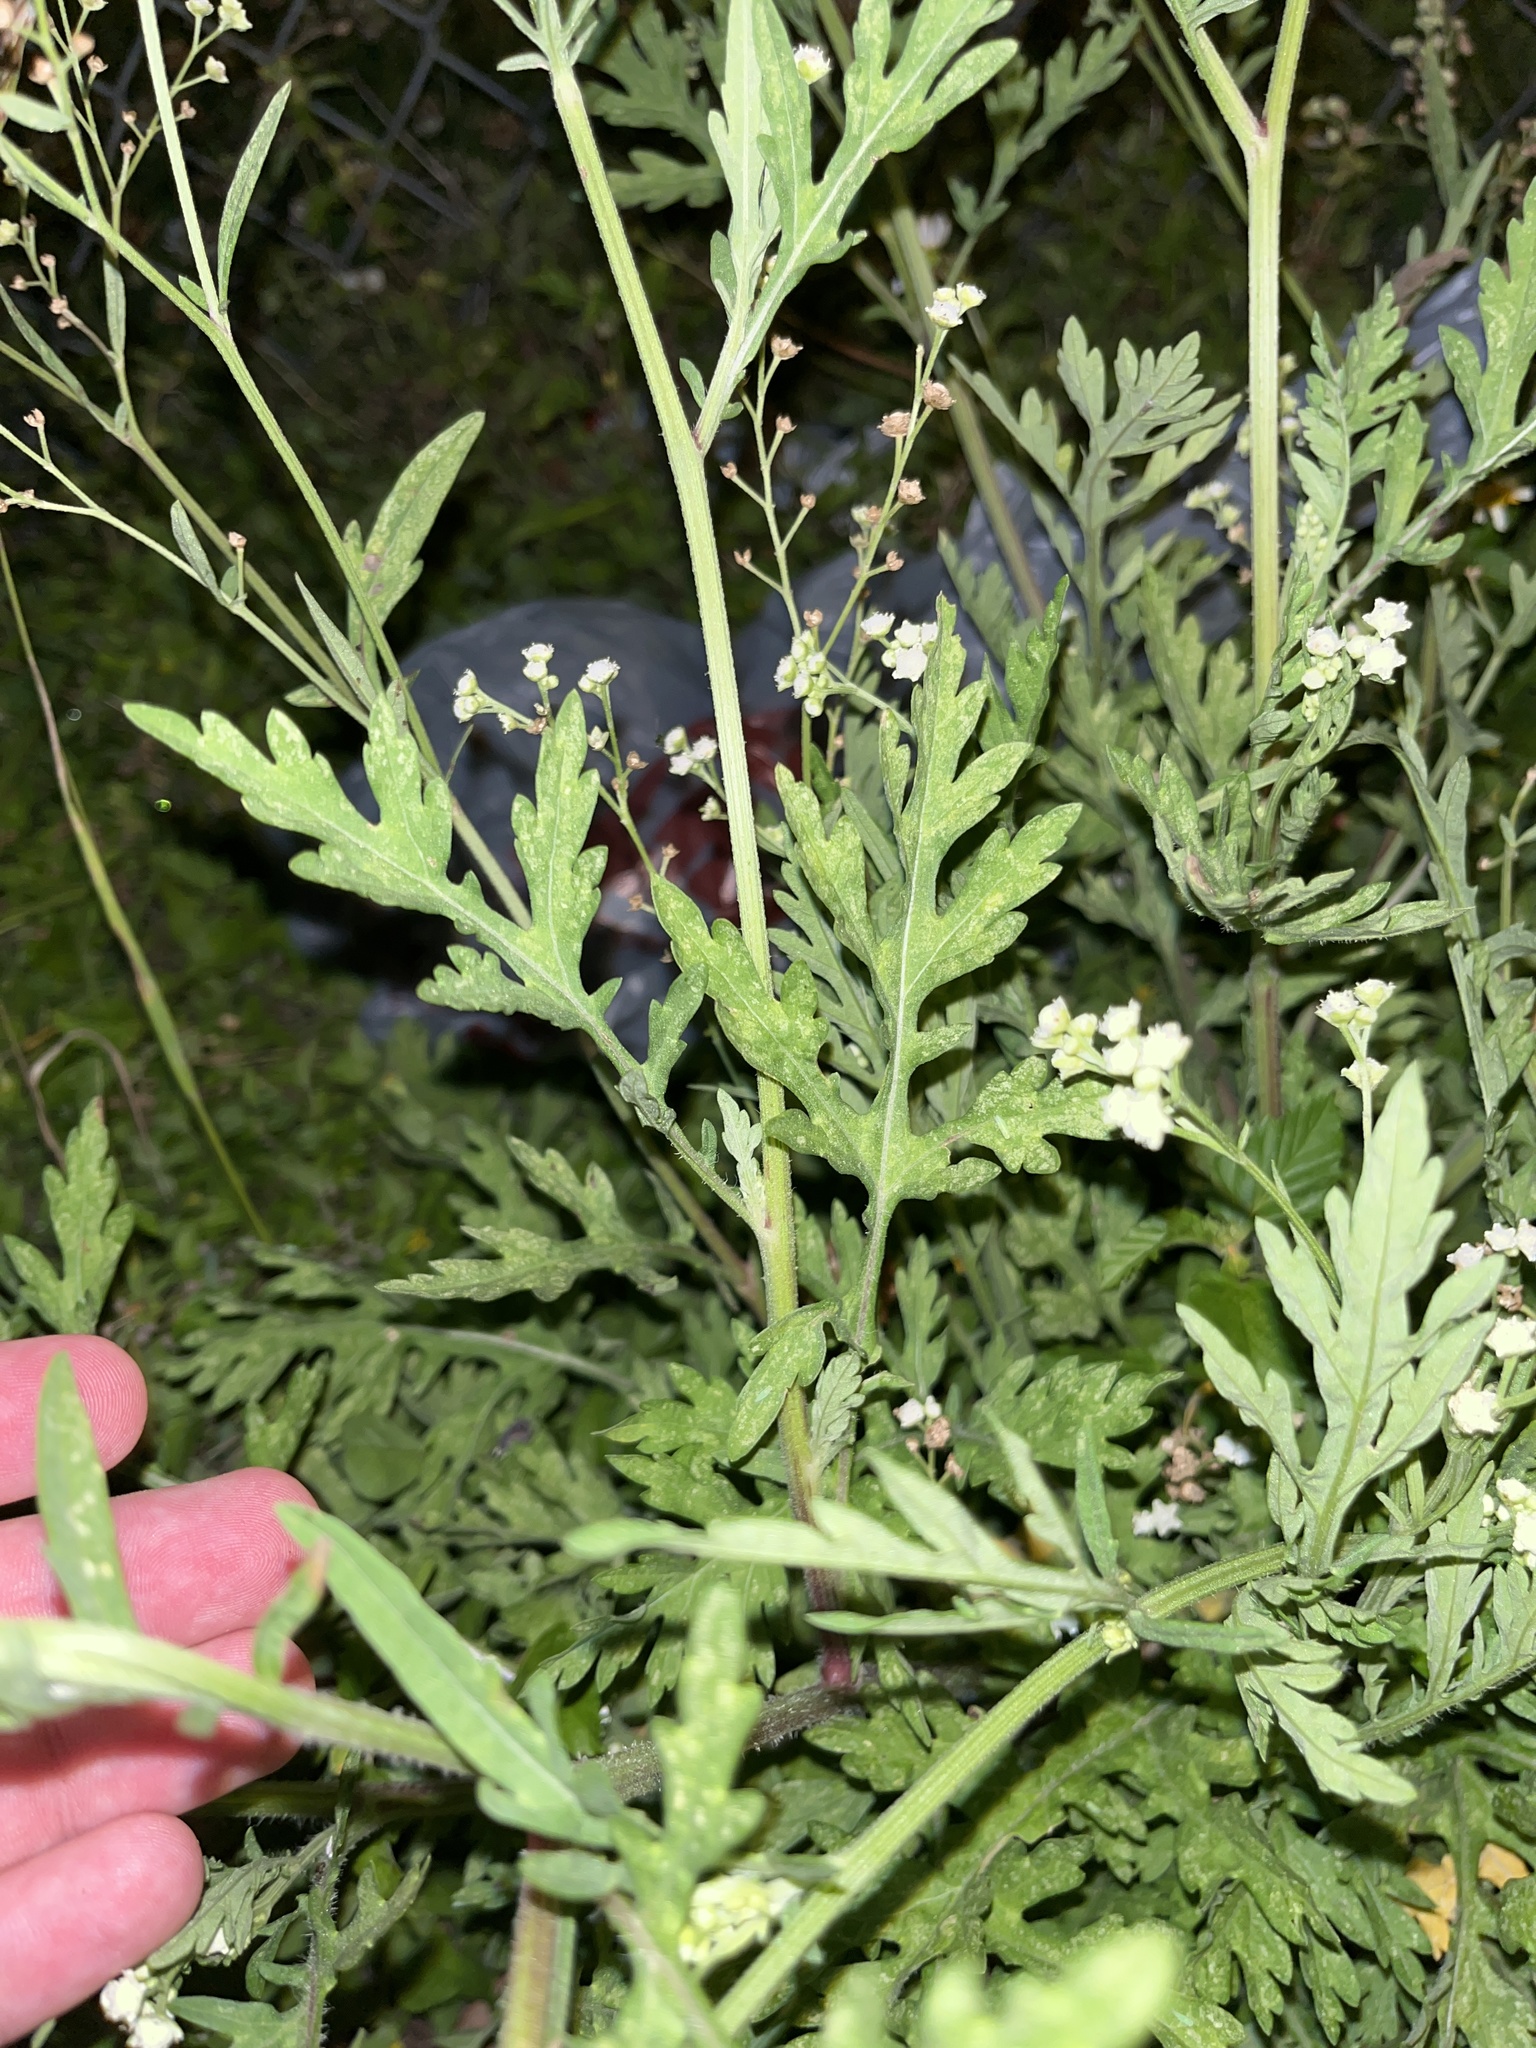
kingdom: Plantae
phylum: Tracheophyta
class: Magnoliopsida
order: Asterales
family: Asteraceae
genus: Parthenium
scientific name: Parthenium hysterophorus
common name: Santa maria feverfew
